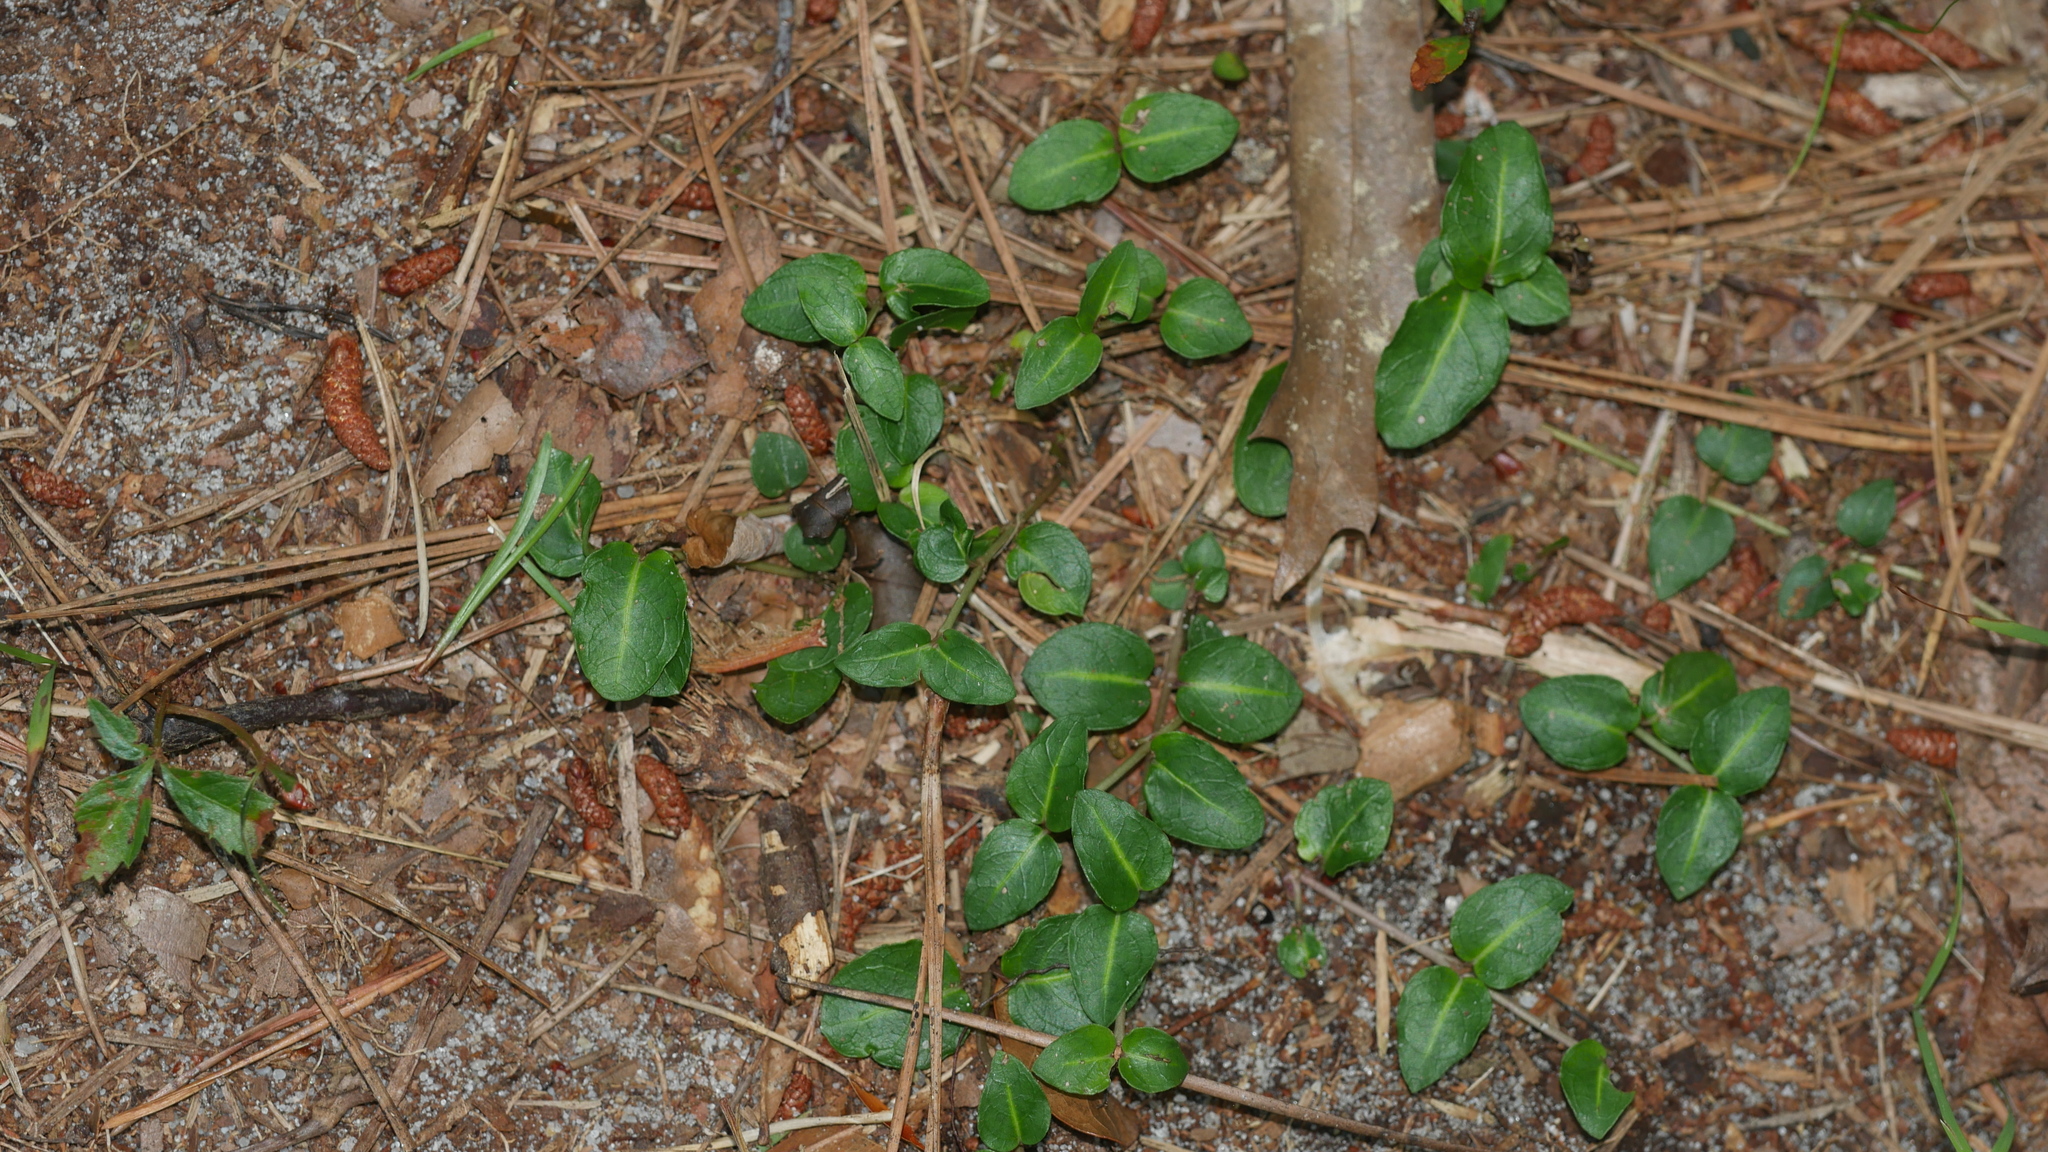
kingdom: Plantae
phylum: Tracheophyta
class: Magnoliopsida
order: Gentianales
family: Rubiaceae
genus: Mitchella
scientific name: Mitchella repens
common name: Partridge-berry
